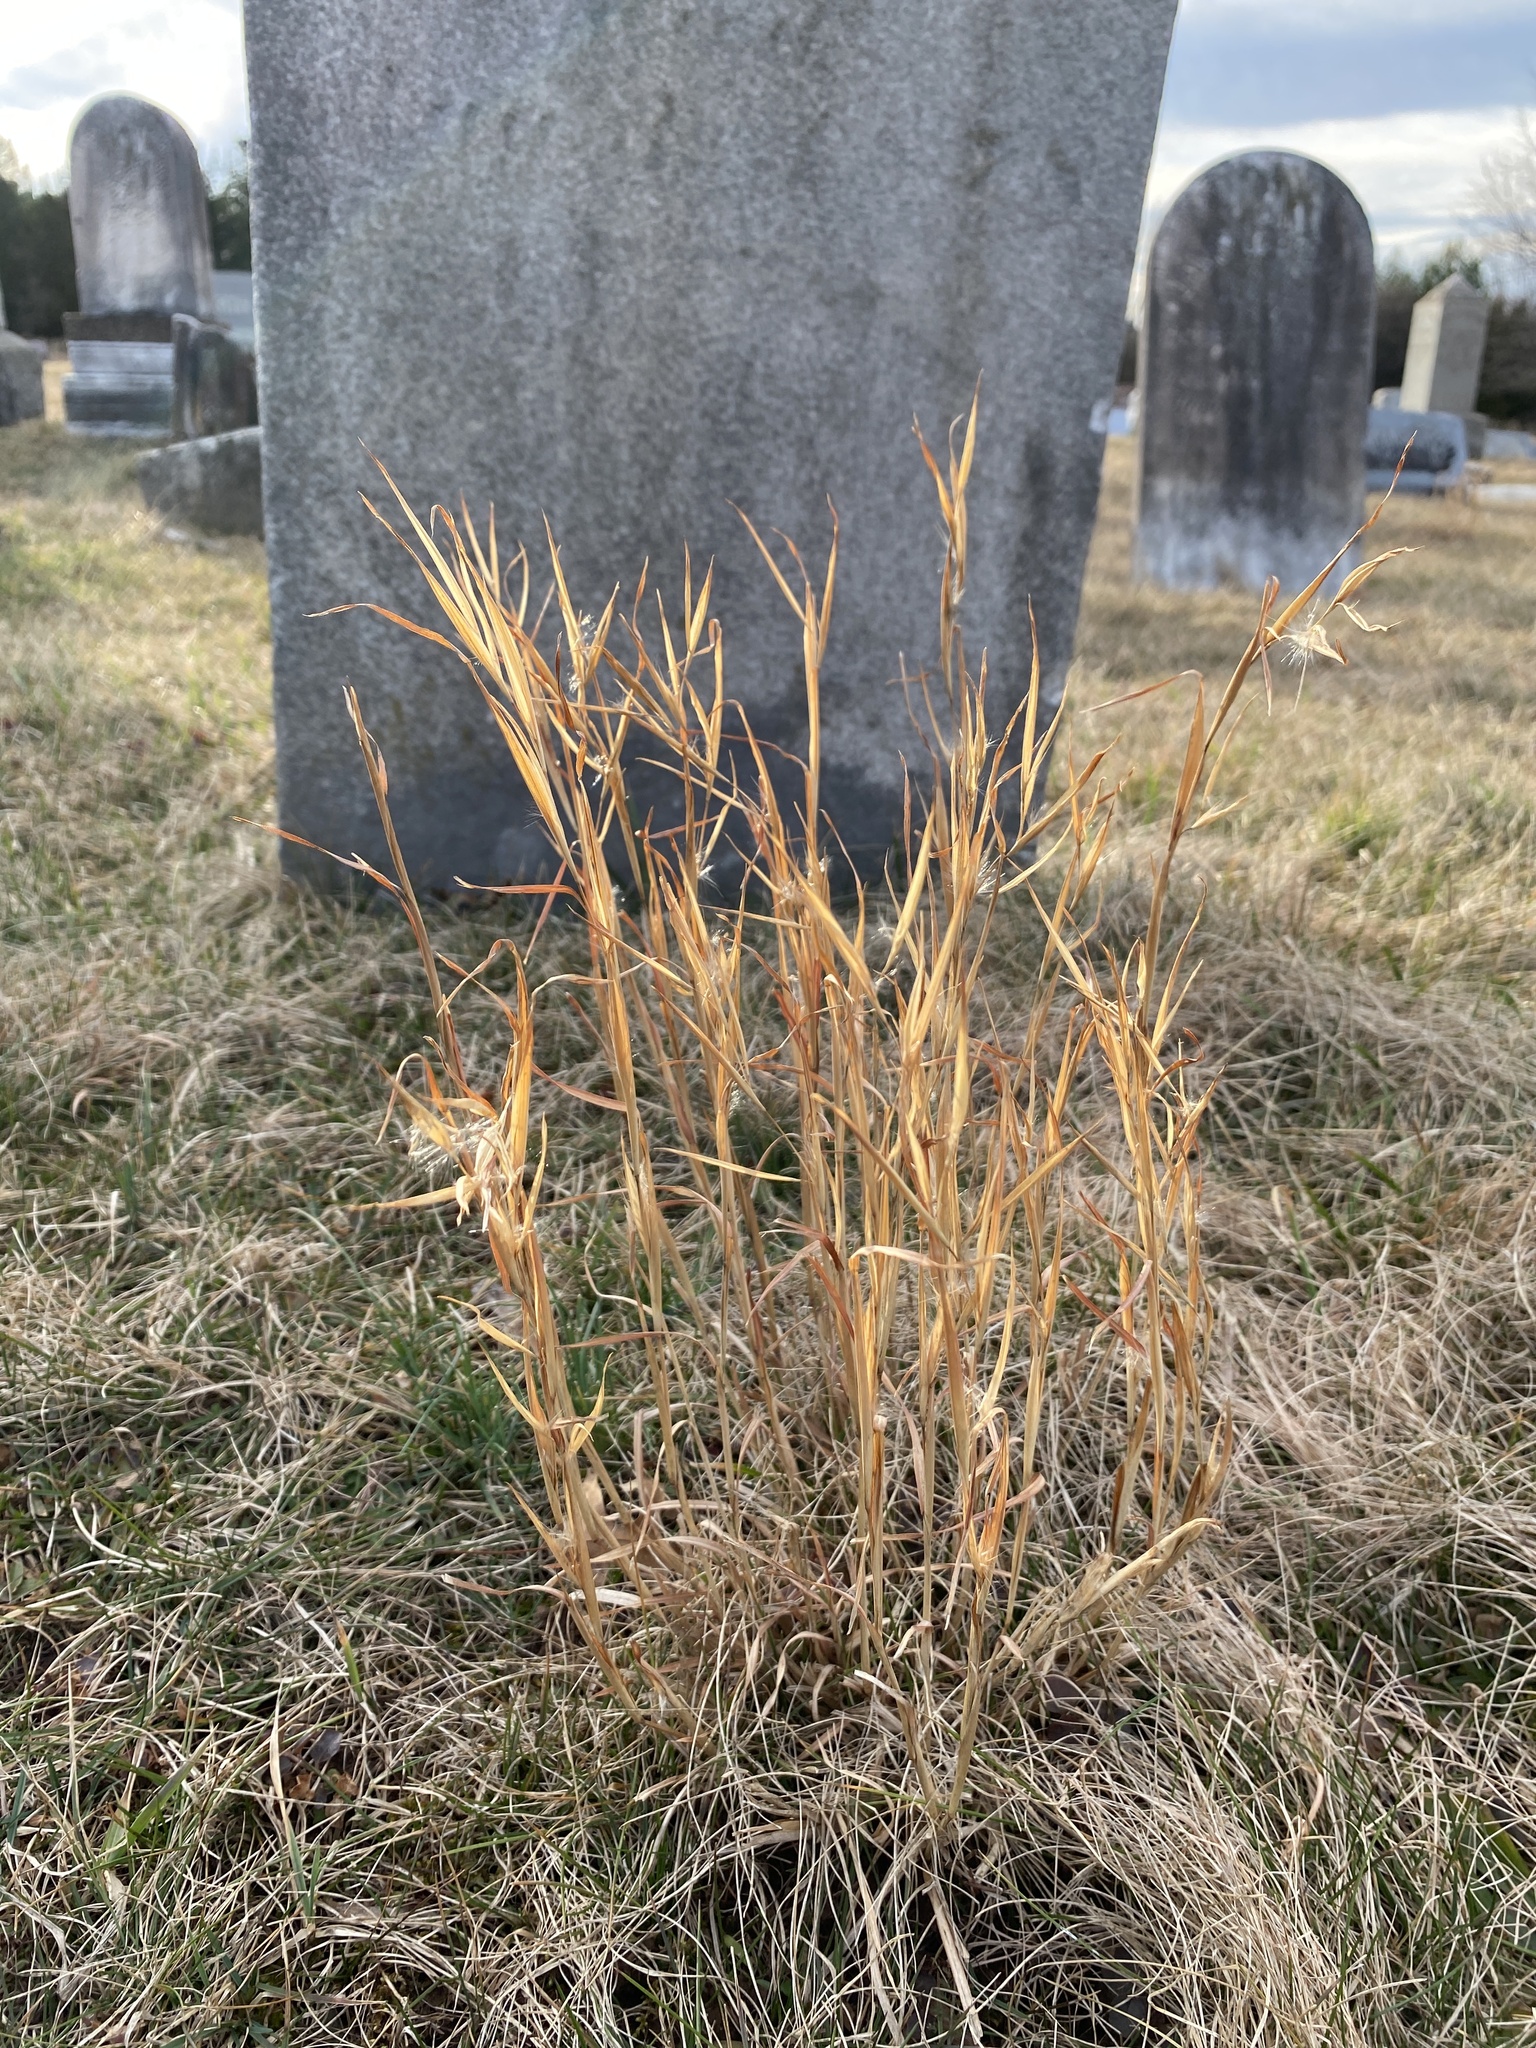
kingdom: Plantae
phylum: Tracheophyta
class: Liliopsida
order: Poales
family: Poaceae
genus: Andropogon
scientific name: Andropogon virginicus
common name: Broomsedge bluestem
